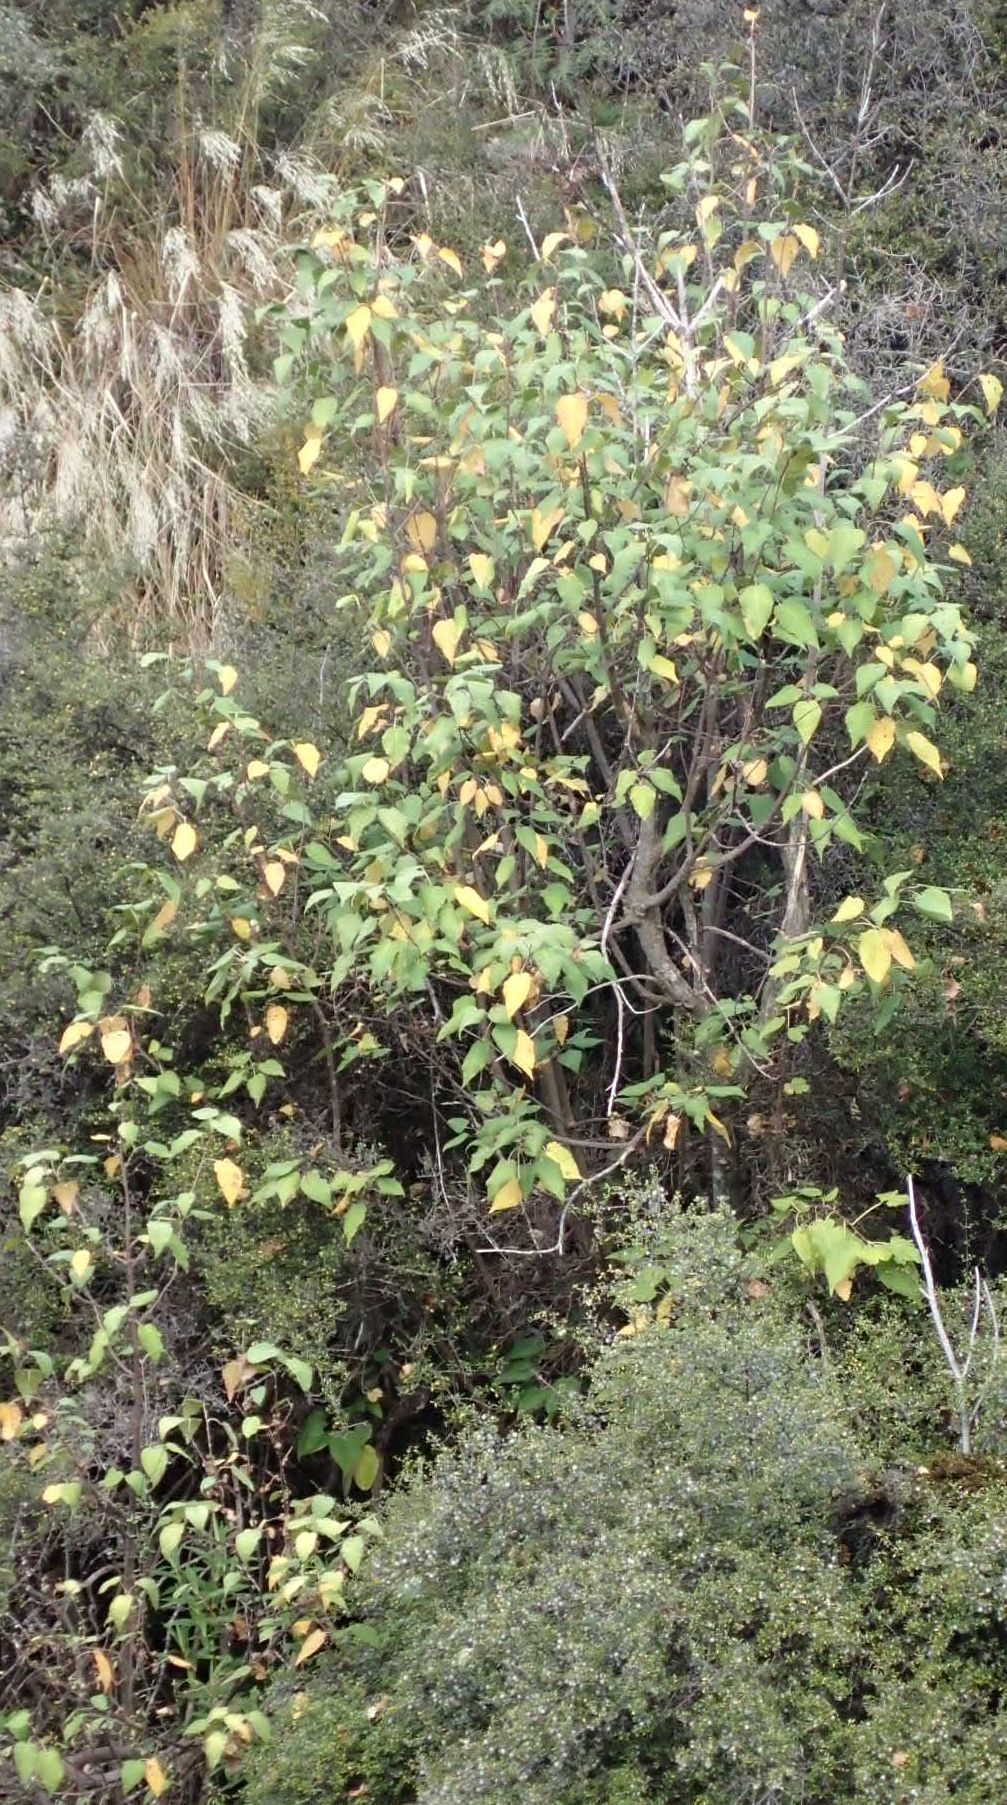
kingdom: Plantae
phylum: Tracheophyta
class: Magnoliopsida
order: Malvales
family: Malvaceae
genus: Hoheria
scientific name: Hoheria lyallii
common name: Lacebark
